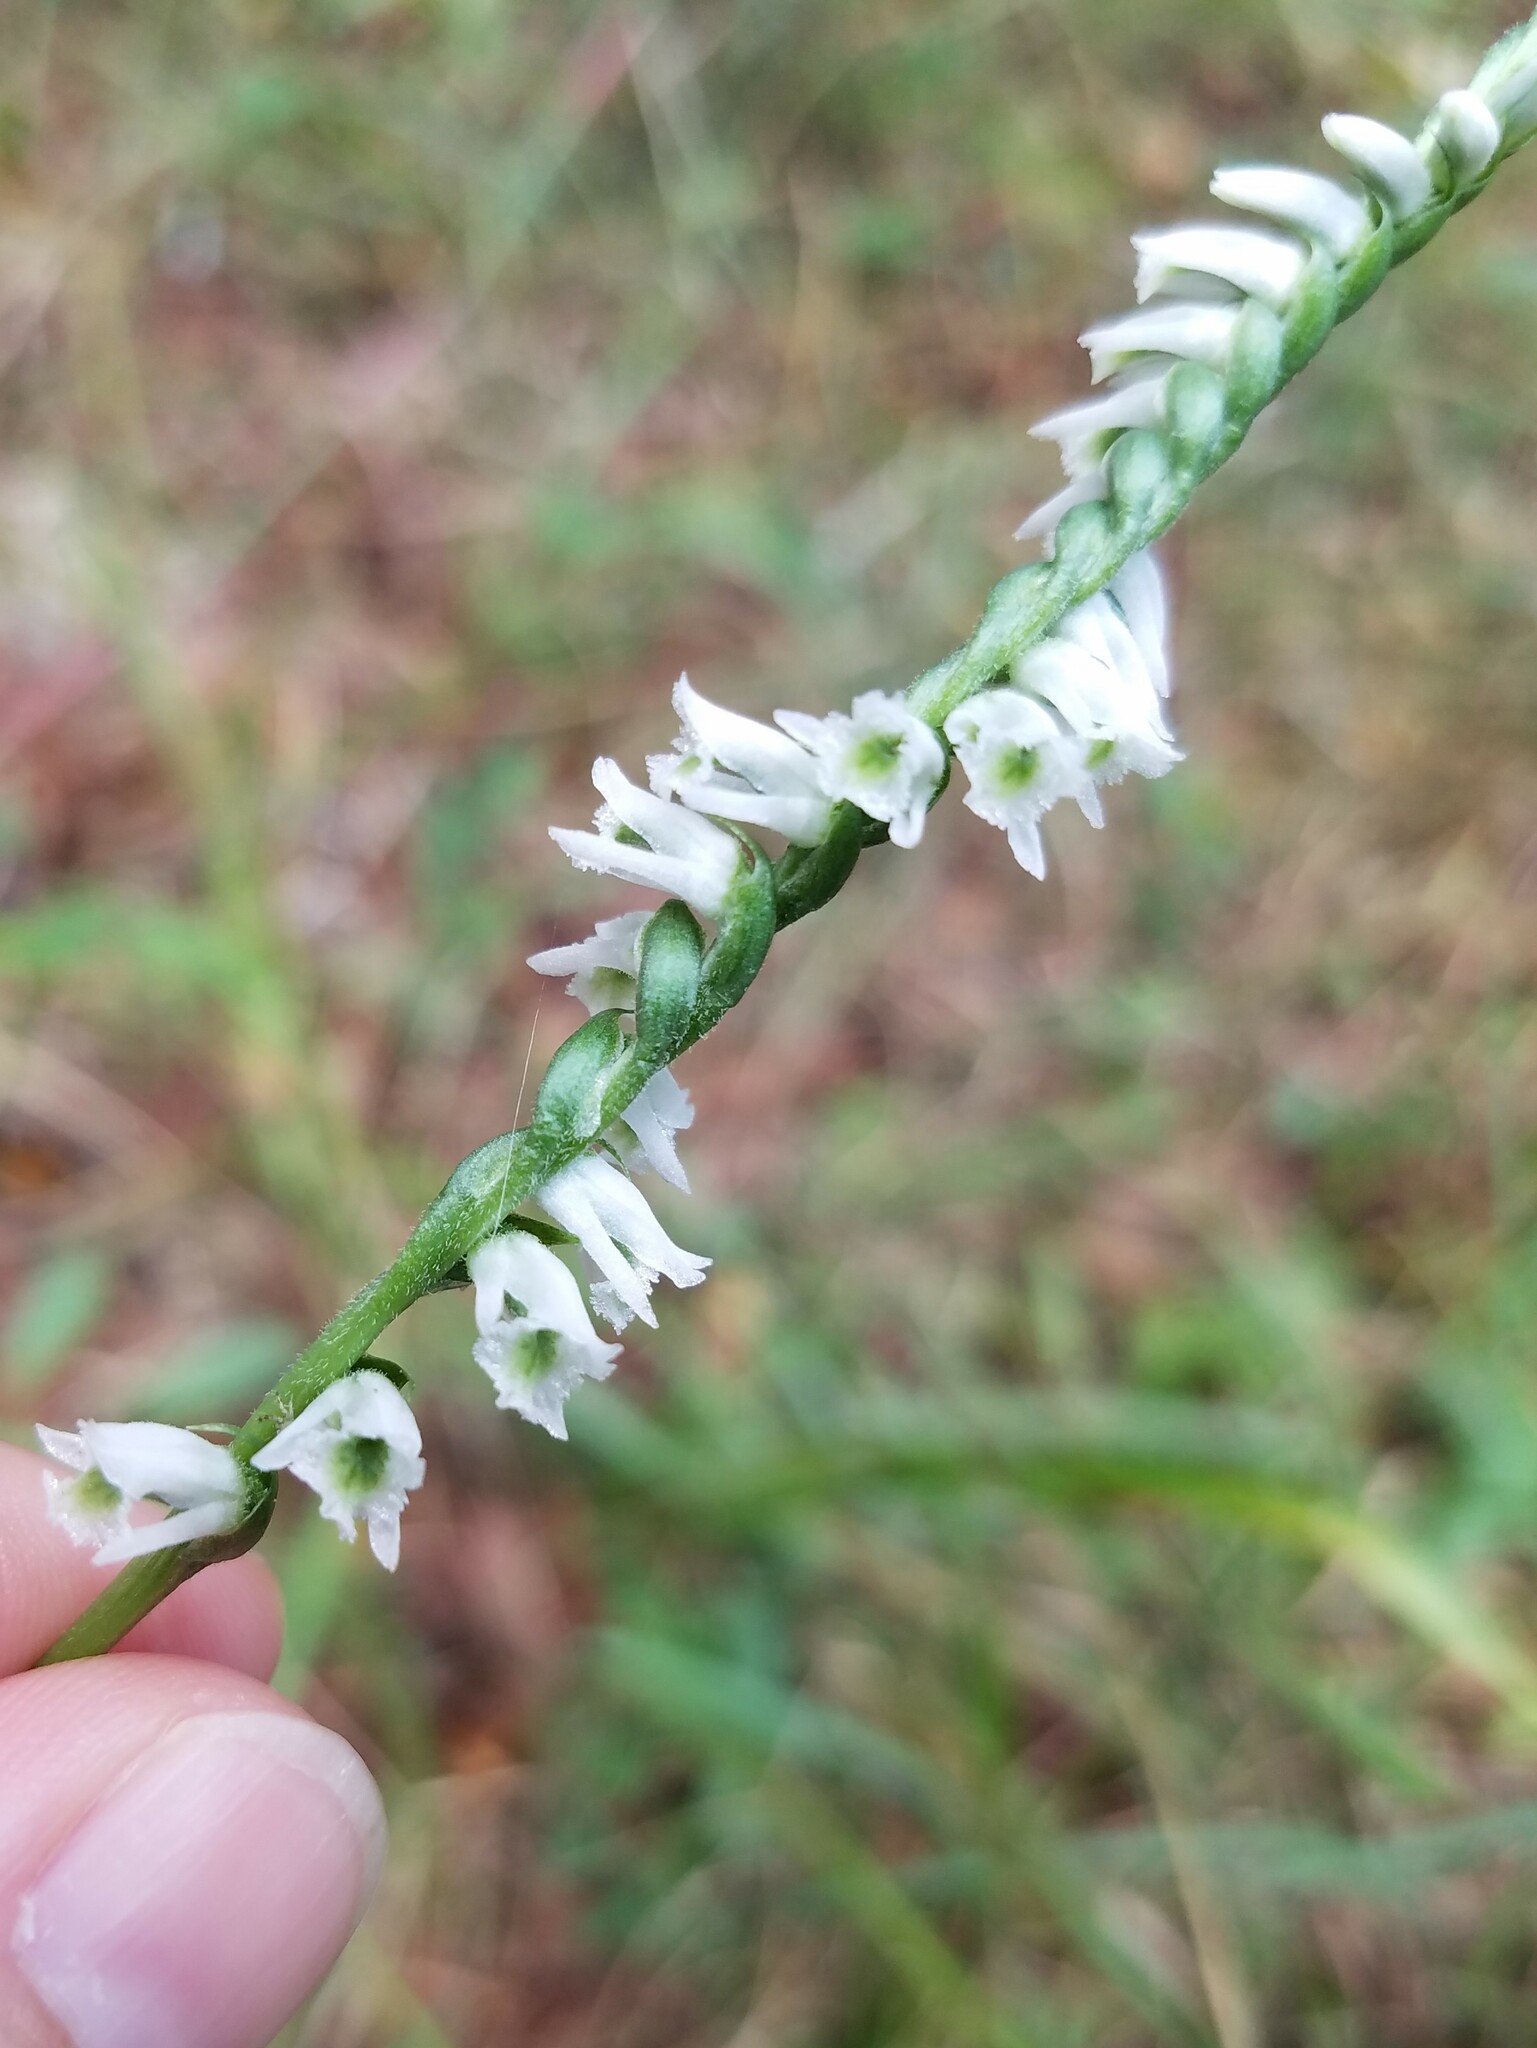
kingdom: Plantae
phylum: Tracheophyta
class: Liliopsida
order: Asparagales
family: Orchidaceae
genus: Spiranthes
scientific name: Spiranthes lacera
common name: Northern slender ladies'-tresses
